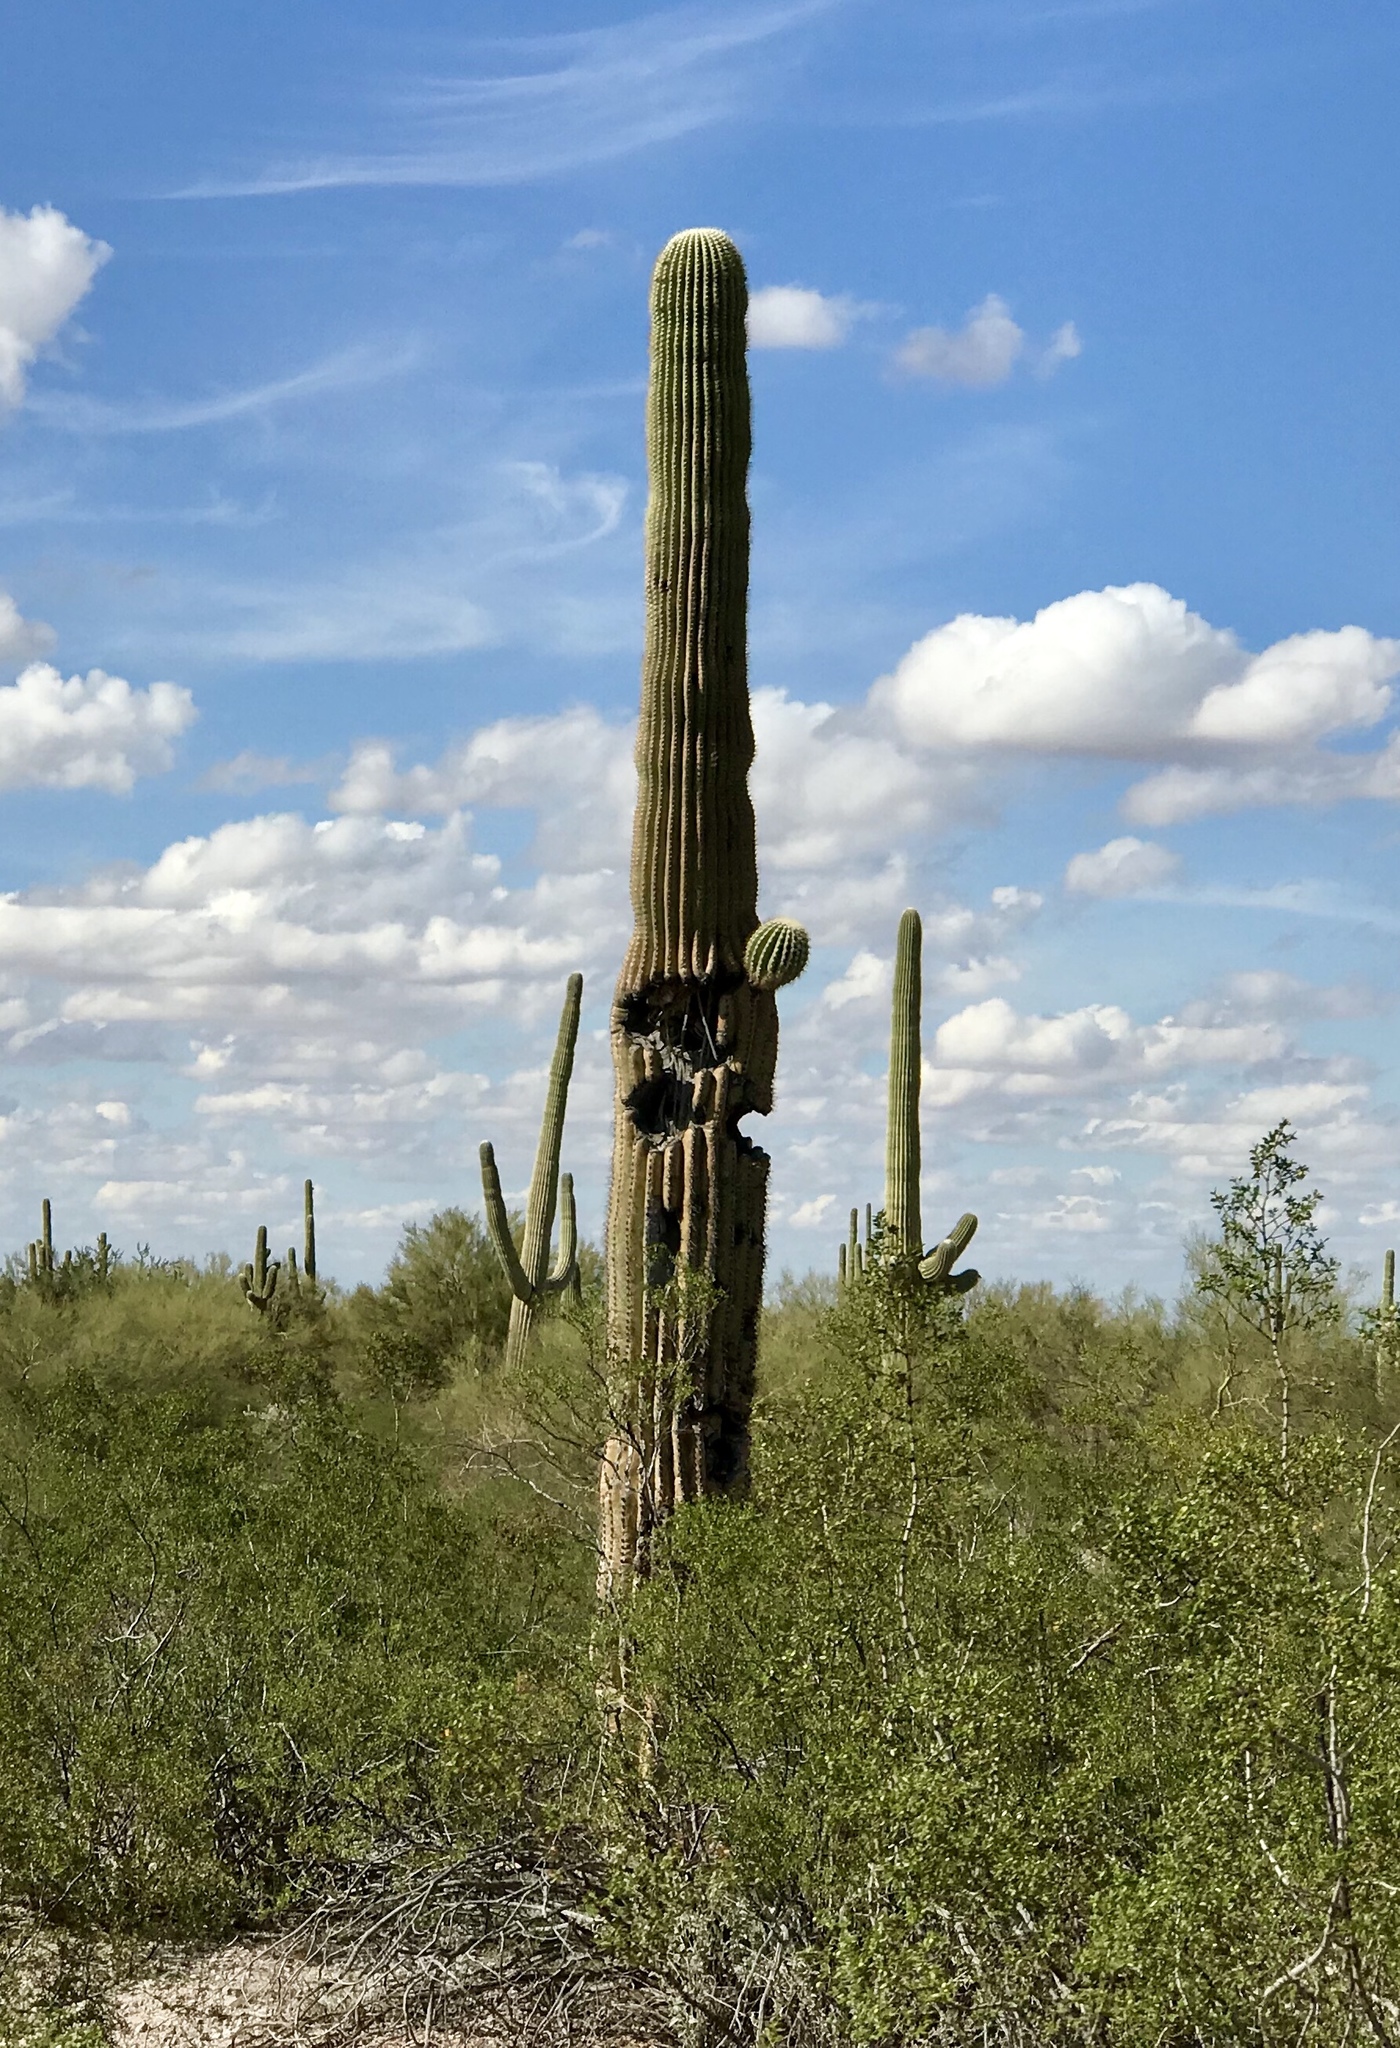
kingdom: Plantae
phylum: Tracheophyta
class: Magnoliopsida
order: Caryophyllales
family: Cactaceae
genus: Carnegiea
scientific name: Carnegiea gigantea
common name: Saguaro
